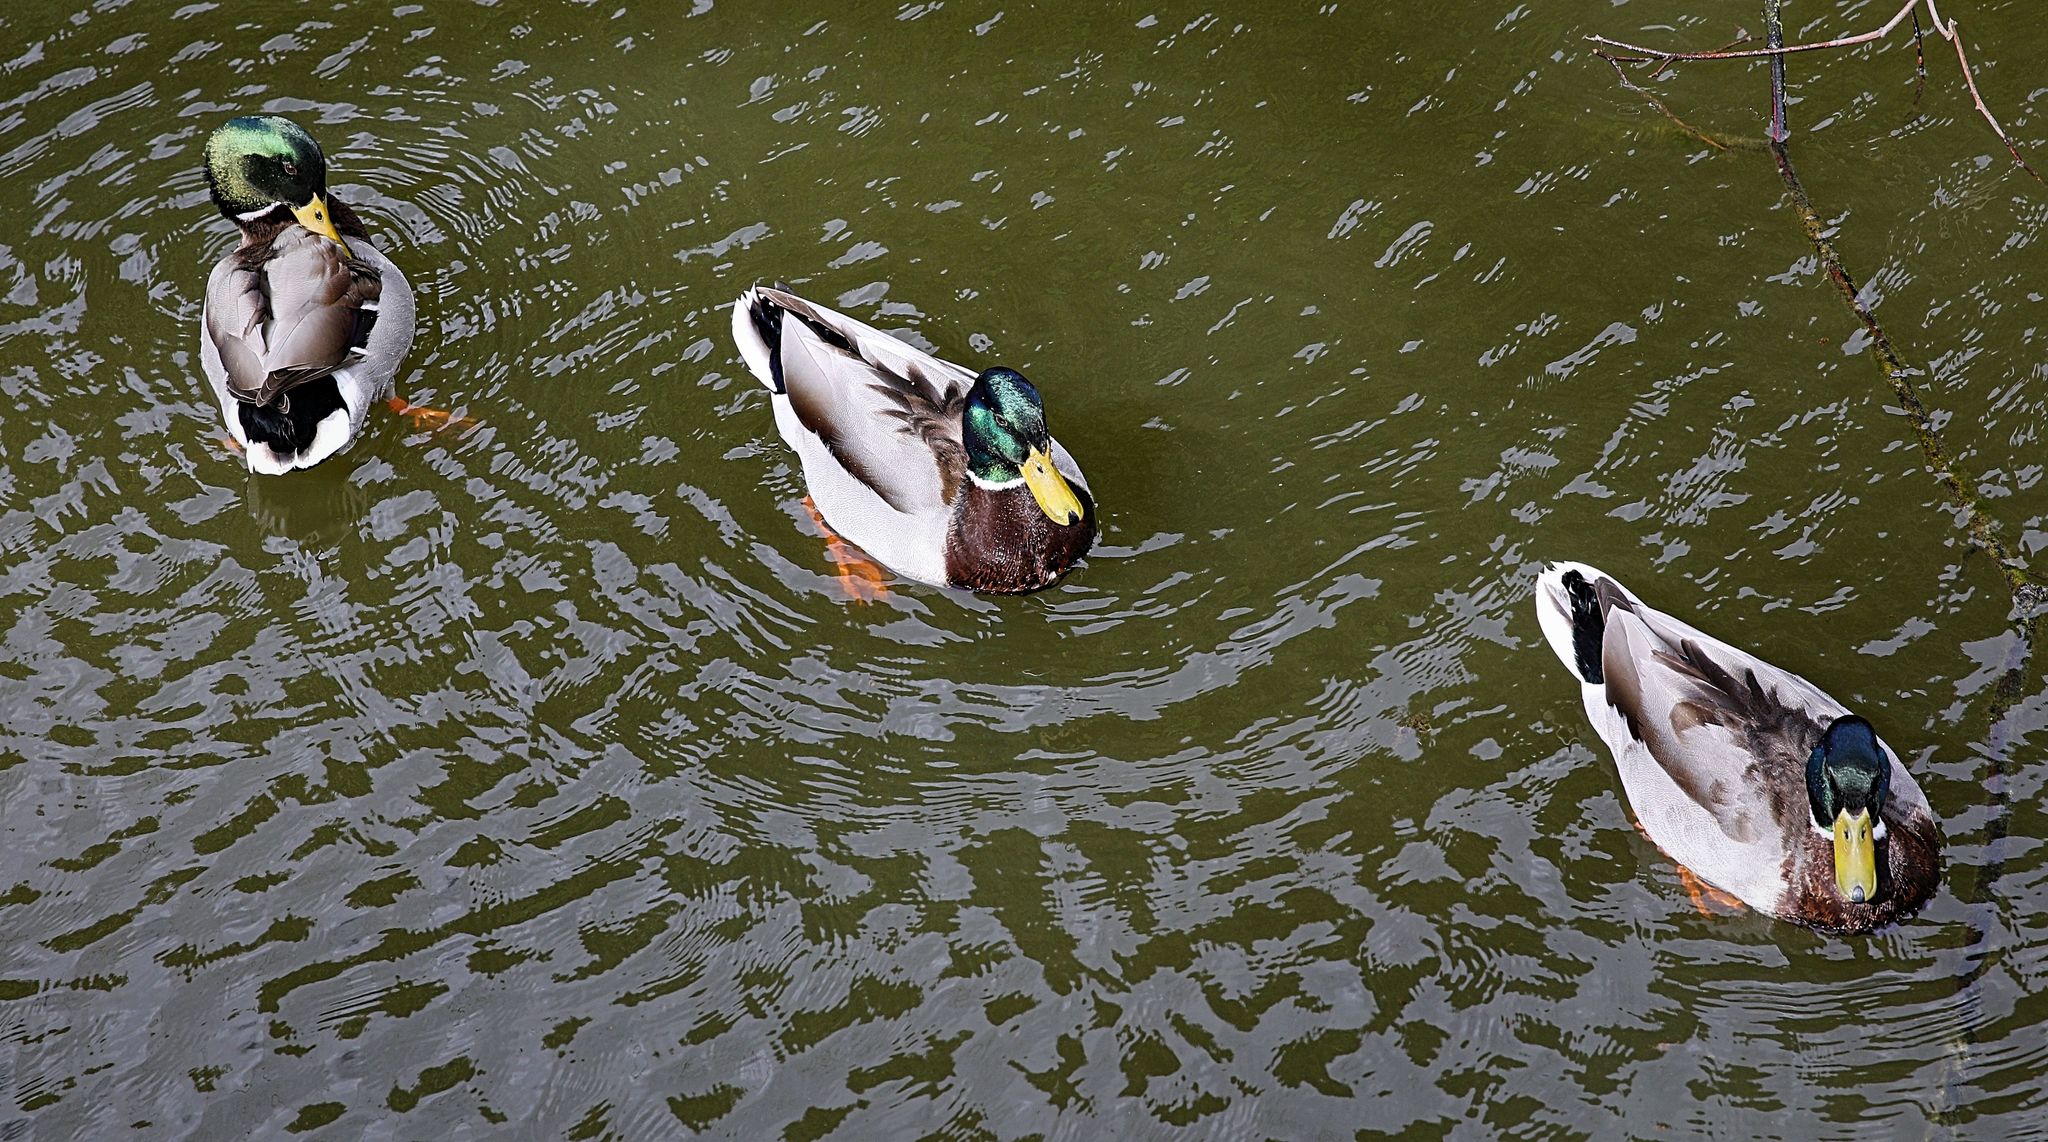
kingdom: Animalia
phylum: Chordata
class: Aves
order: Anseriformes
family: Anatidae
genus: Anas
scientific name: Anas platyrhynchos
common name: Mallard
